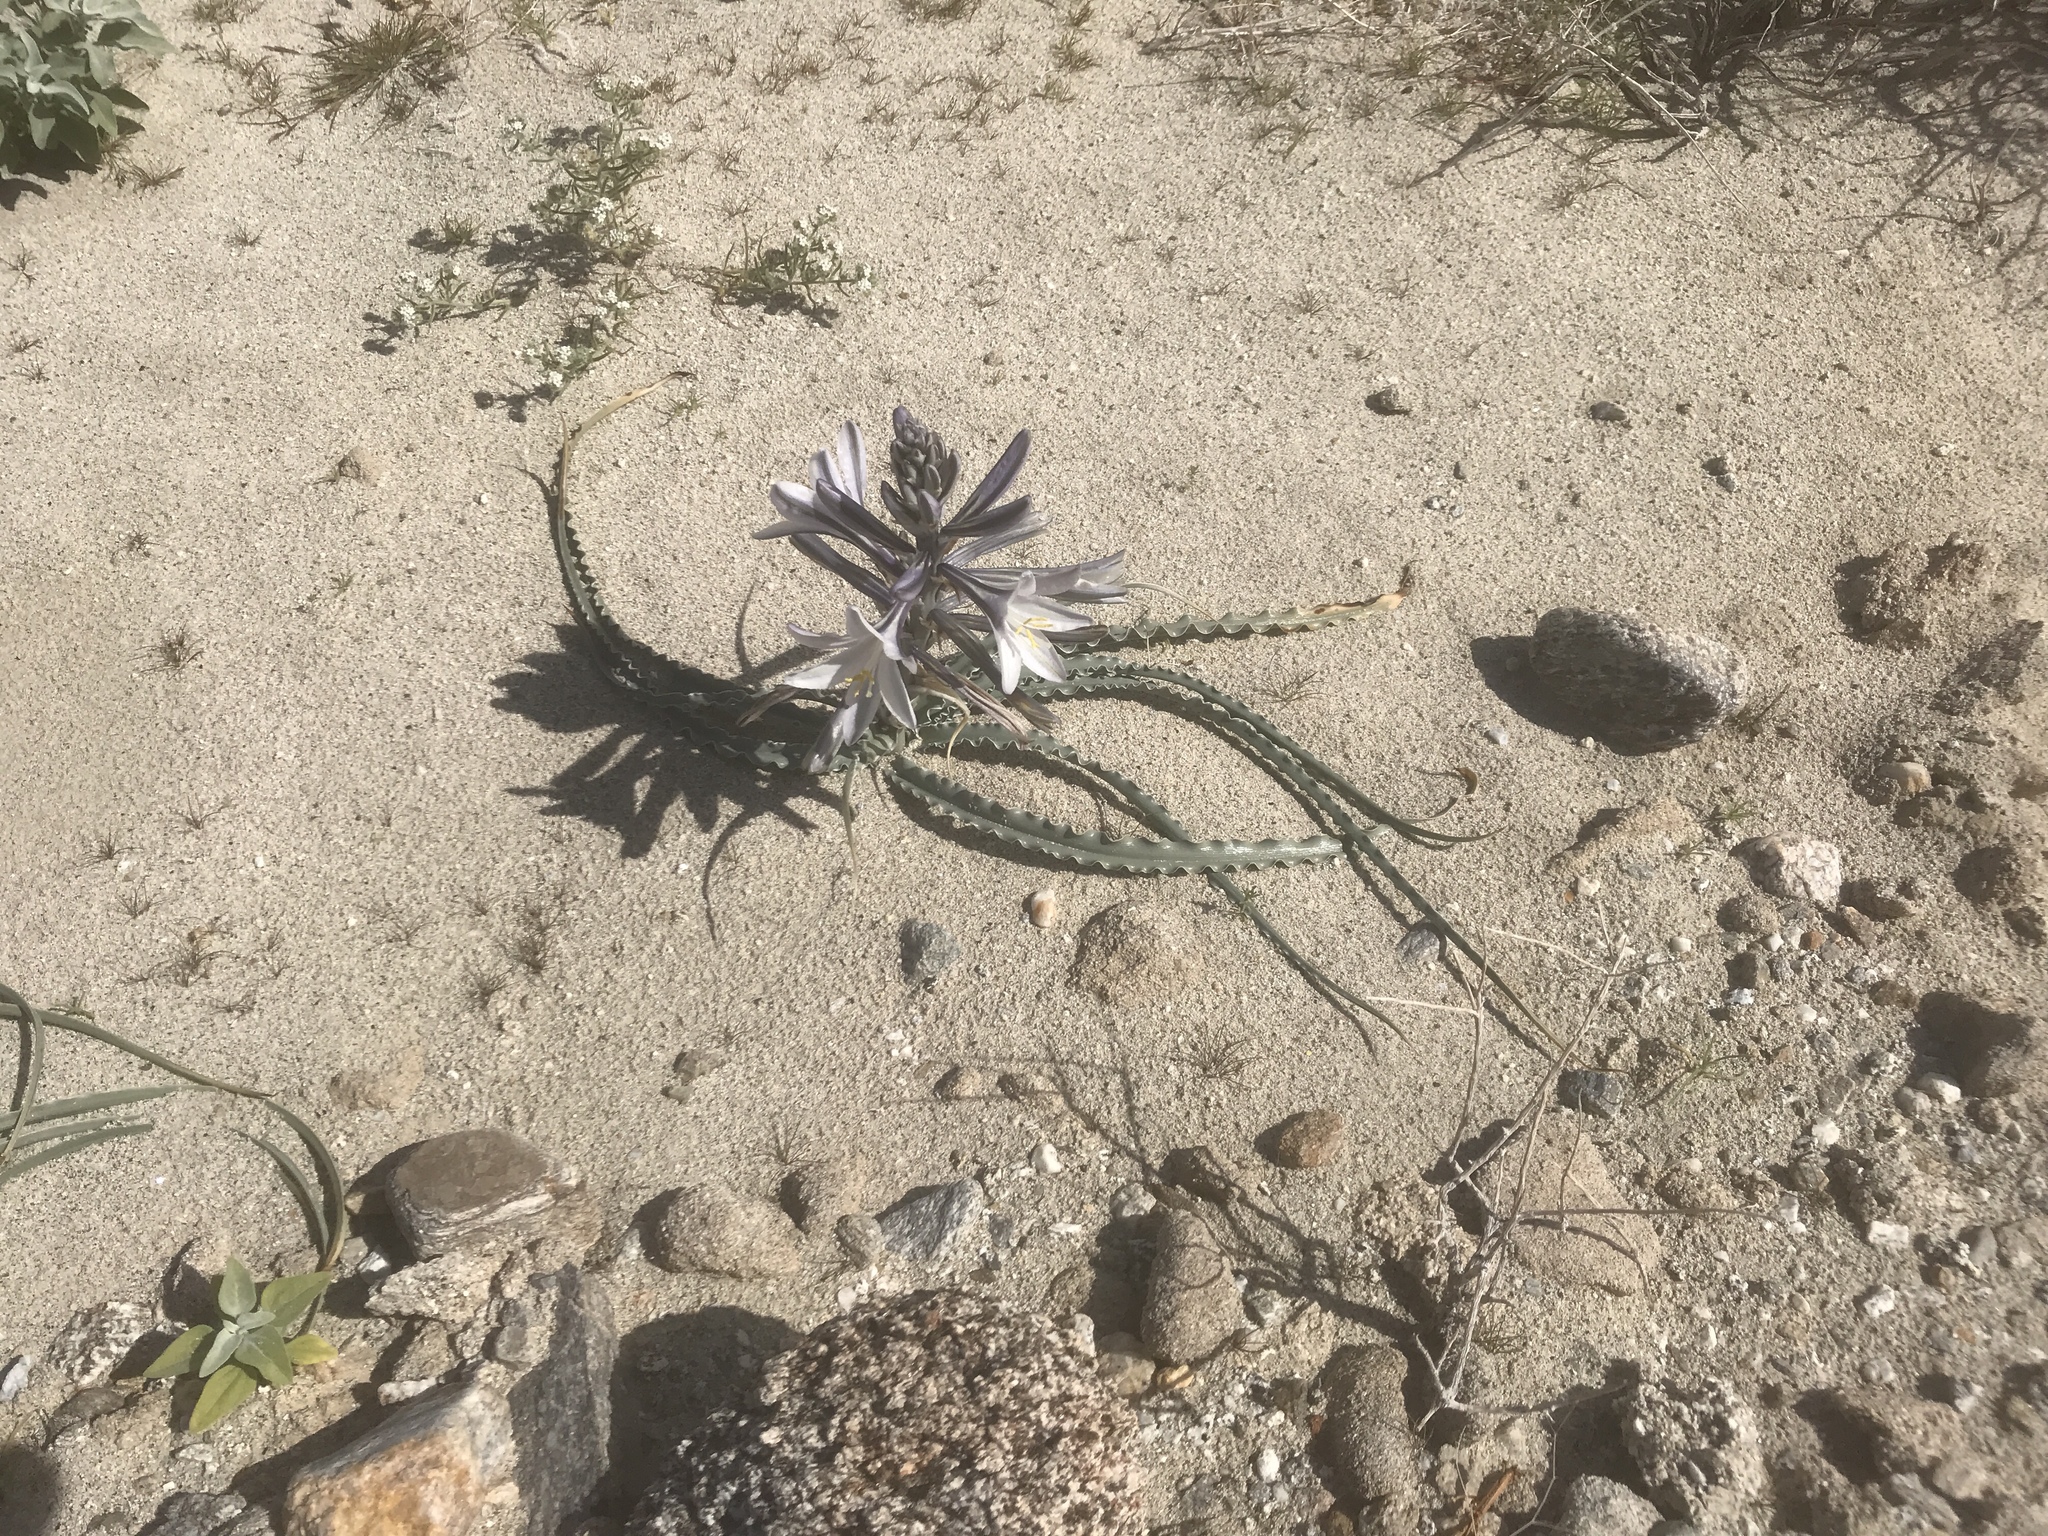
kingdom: Plantae
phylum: Tracheophyta
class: Liliopsida
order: Asparagales
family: Asparagaceae
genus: Hesperocallis
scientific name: Hesperocallis undulata
